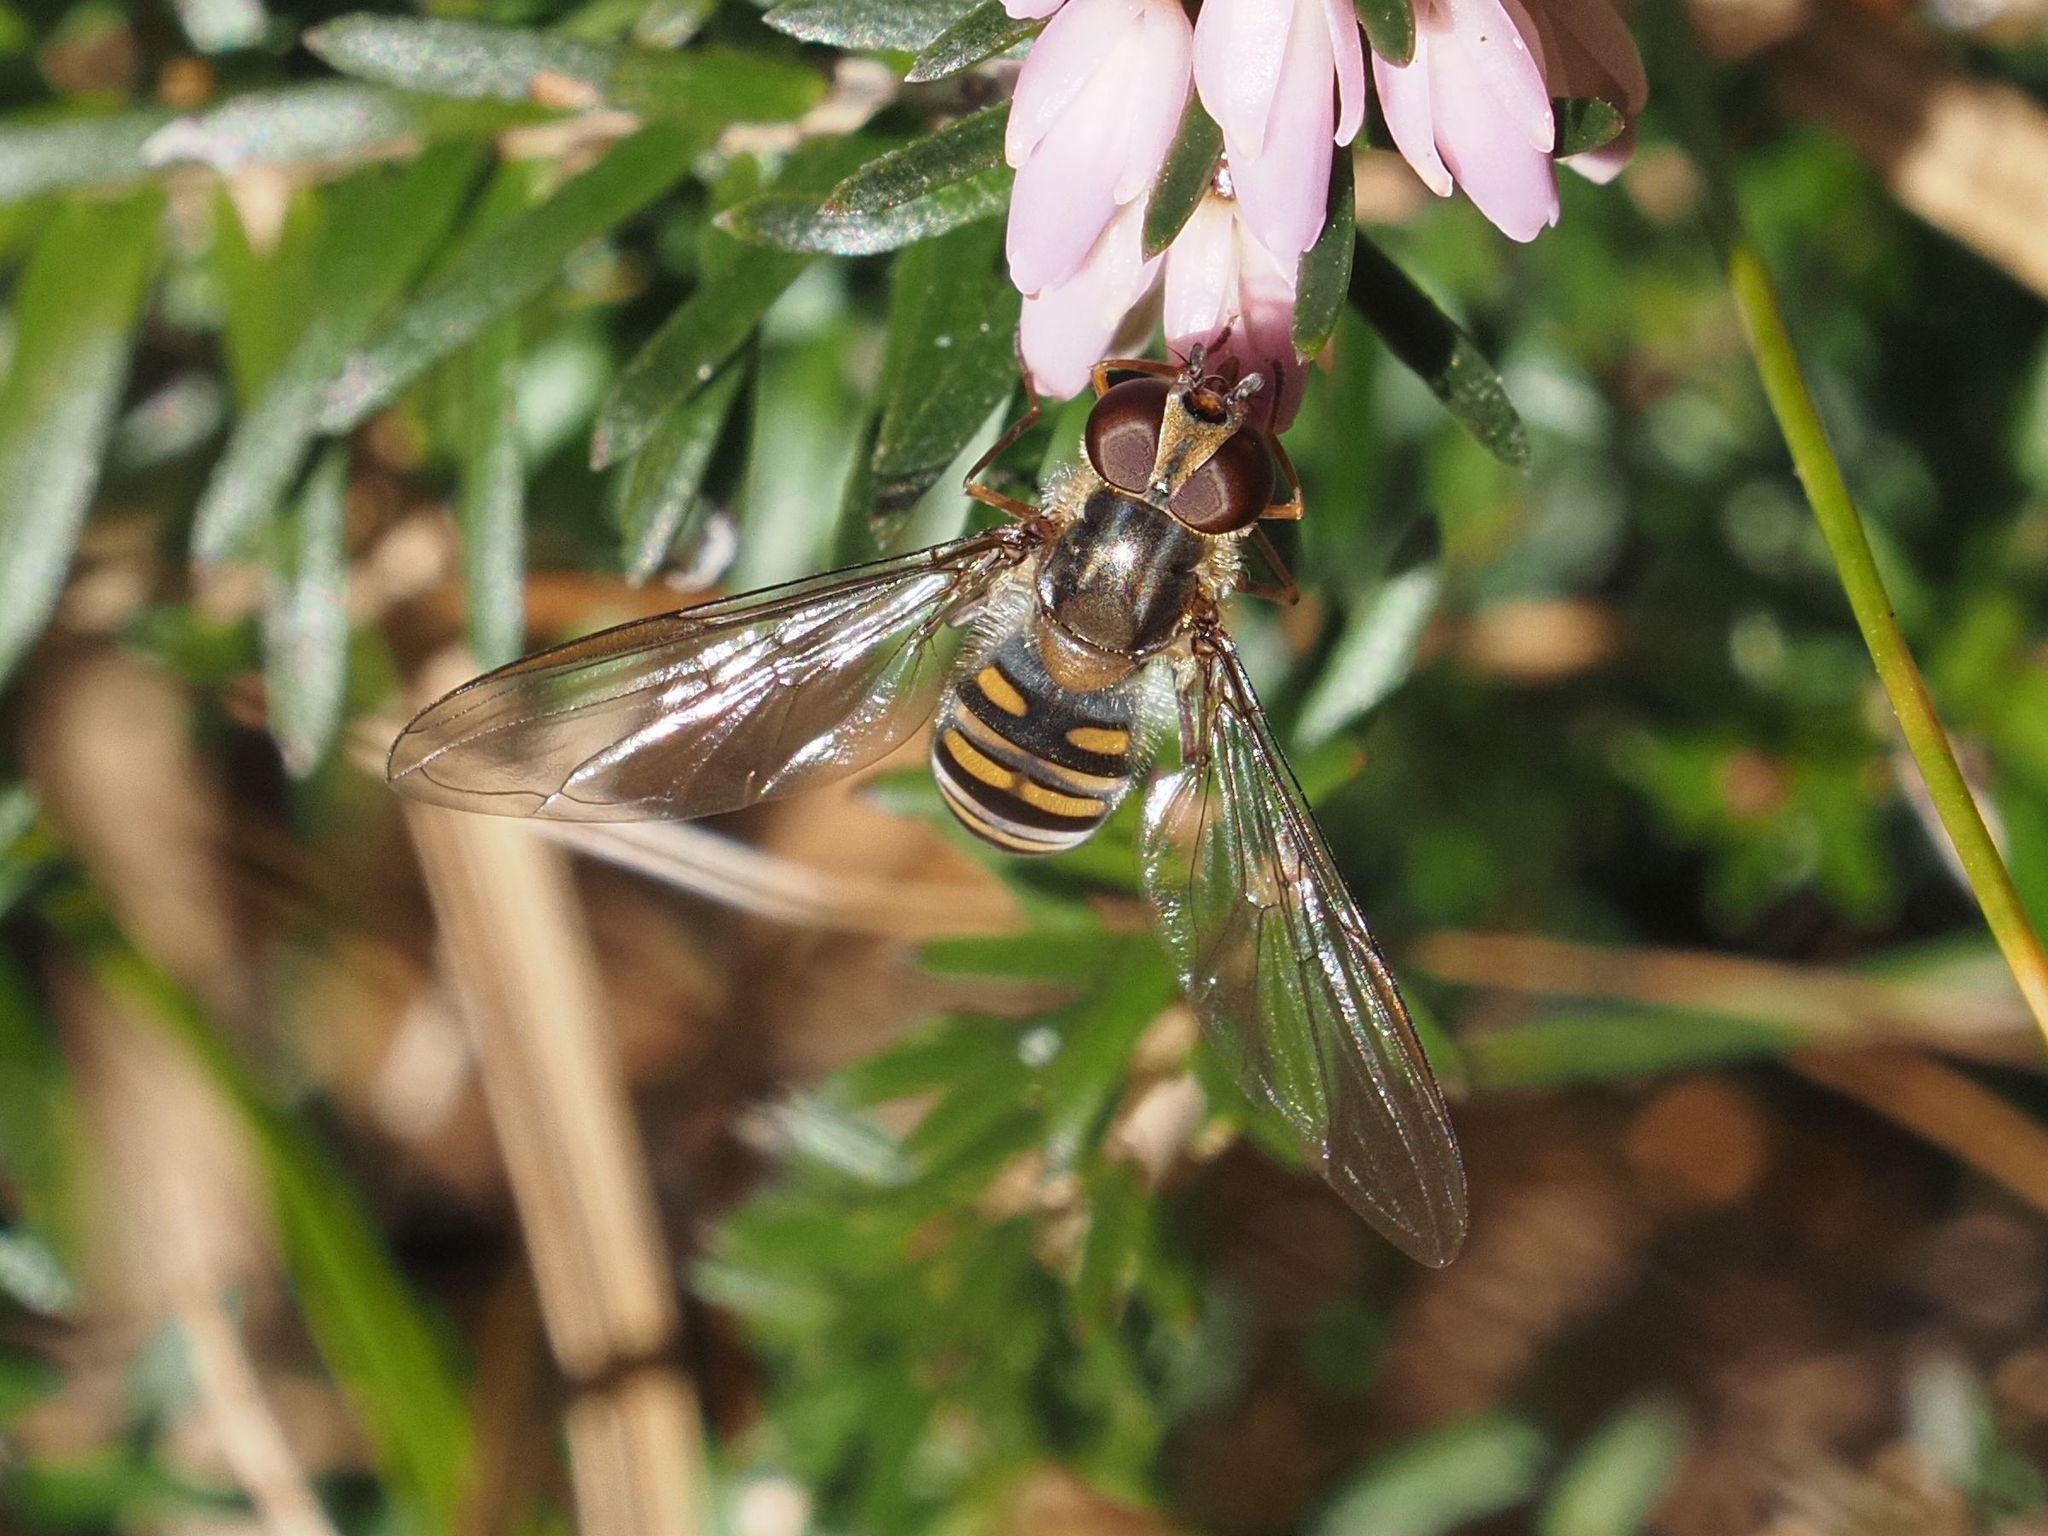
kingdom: Animalia
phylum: Arthropoda
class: Insecta
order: Diptera
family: Syrphidae
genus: Episyrphus
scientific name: Episyrphus balteatus
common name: Marmalade hoverfly
